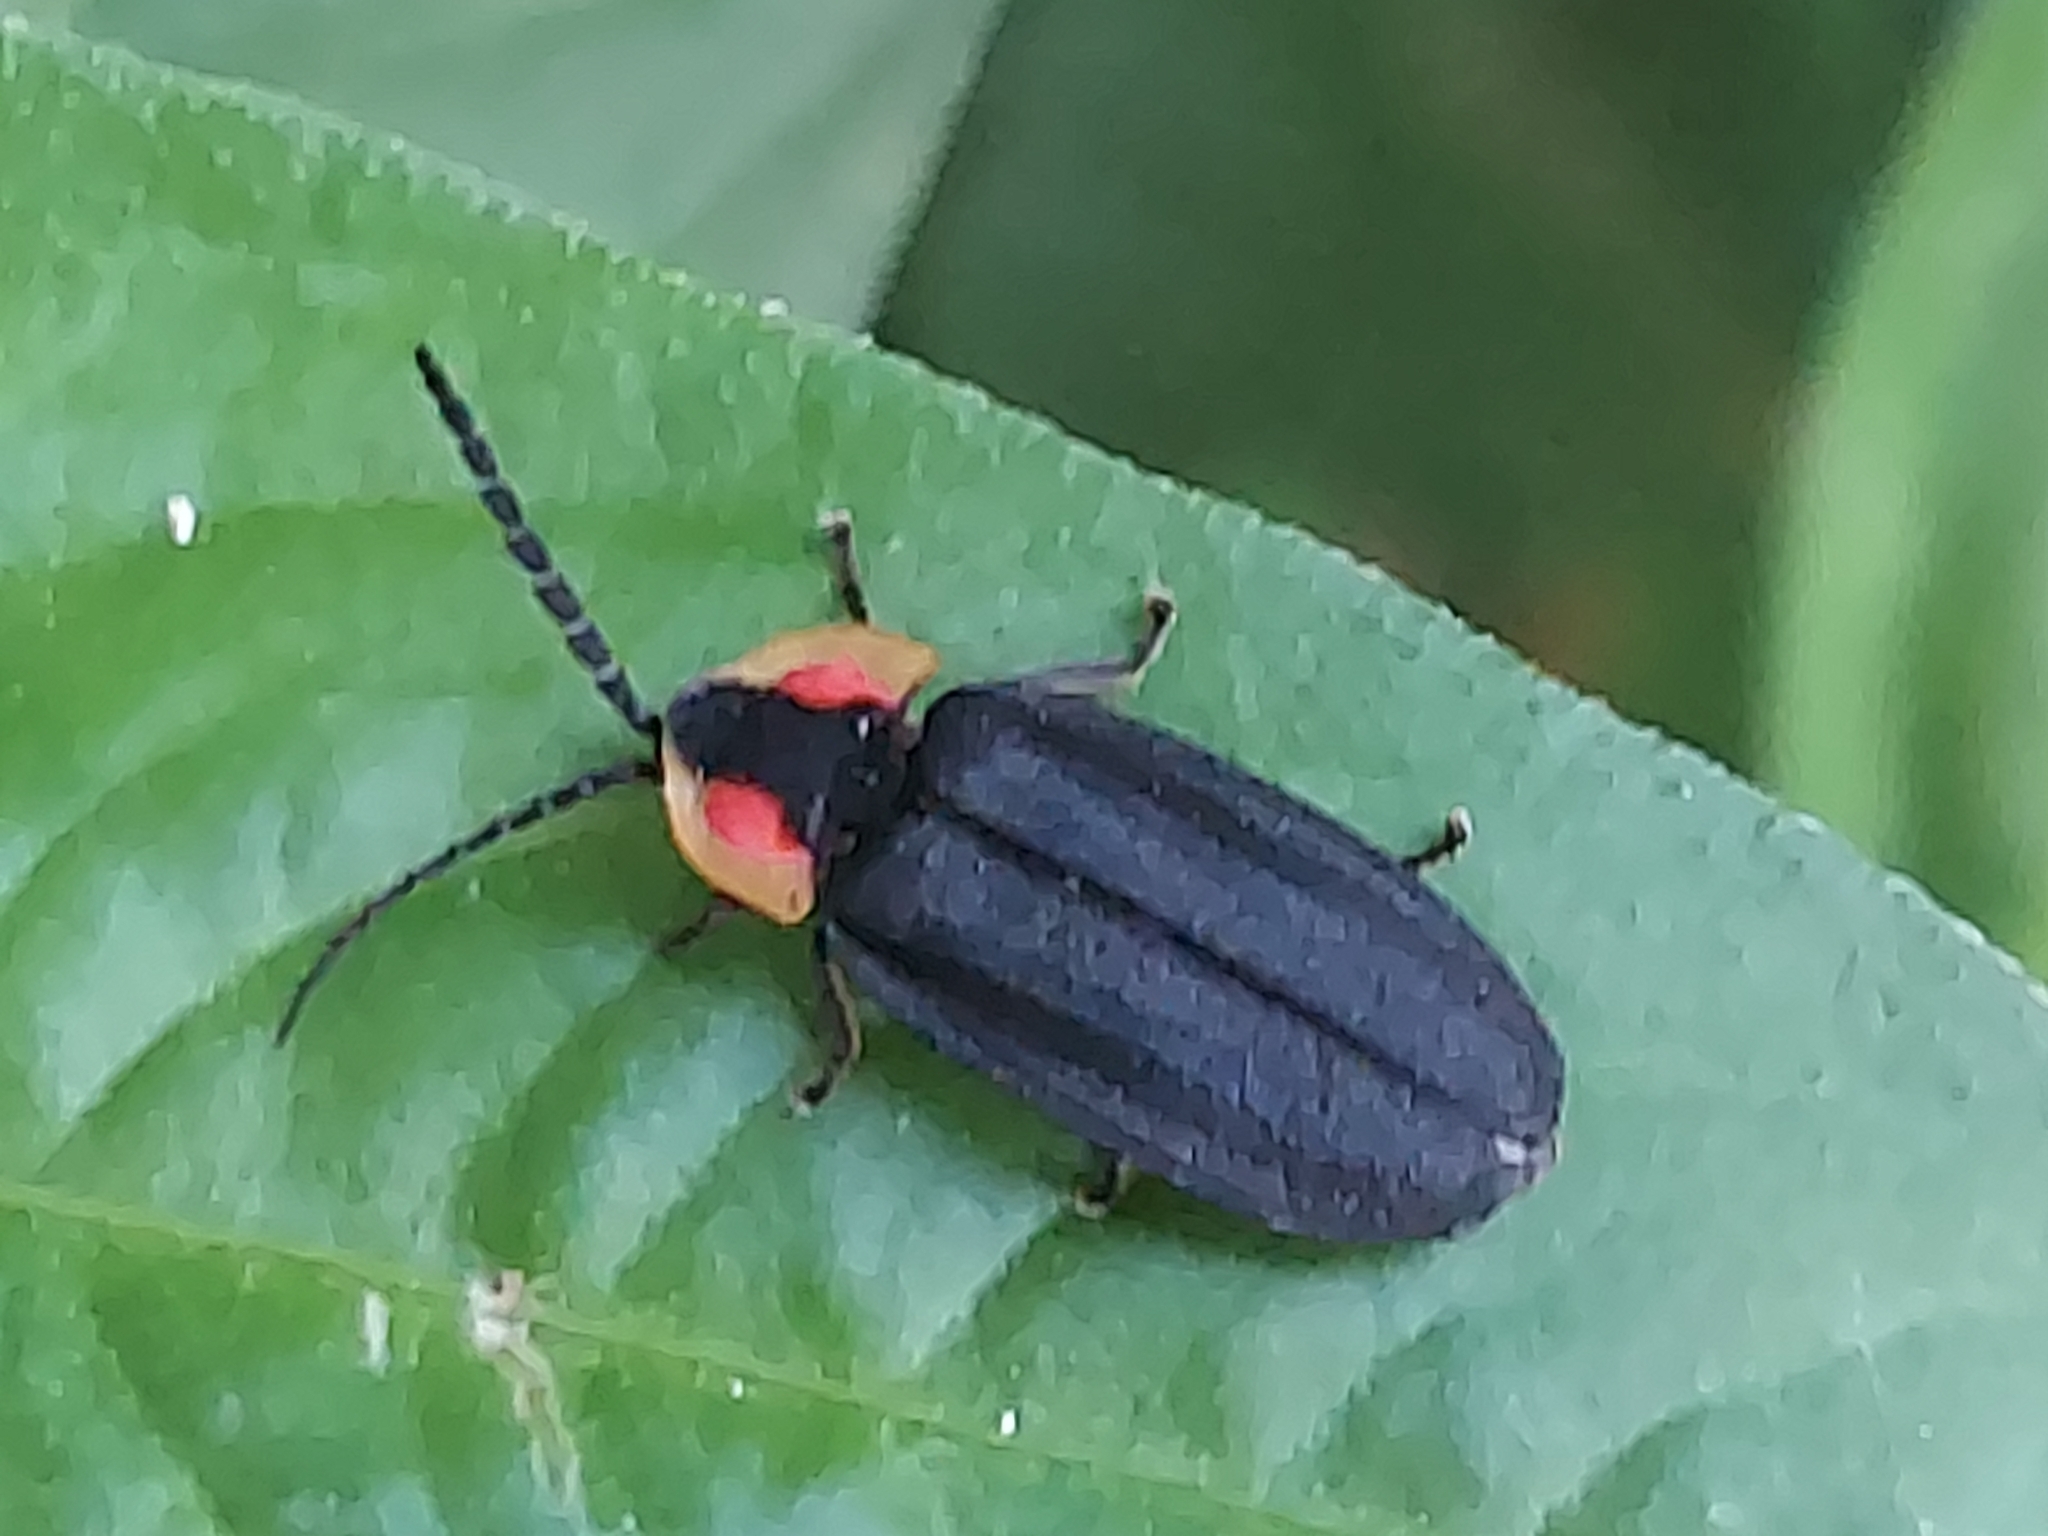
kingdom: Animalia
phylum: Arthropoda
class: Insecta
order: Coleoptera
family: Lampyridae
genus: Lucidota
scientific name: Lucidota atra
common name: Black firefly
